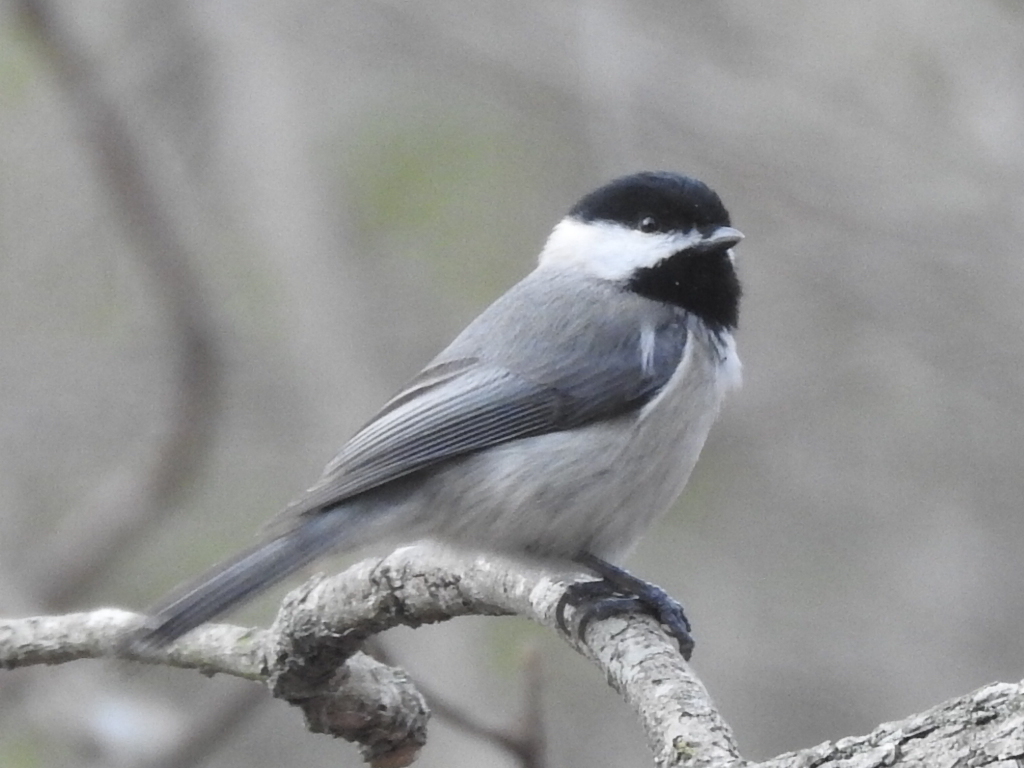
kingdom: Animalia
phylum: Chordata
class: Aves
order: Passeriformes
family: Paridae
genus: Poecile
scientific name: Poecile carolinensis
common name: Carolina chickadee
